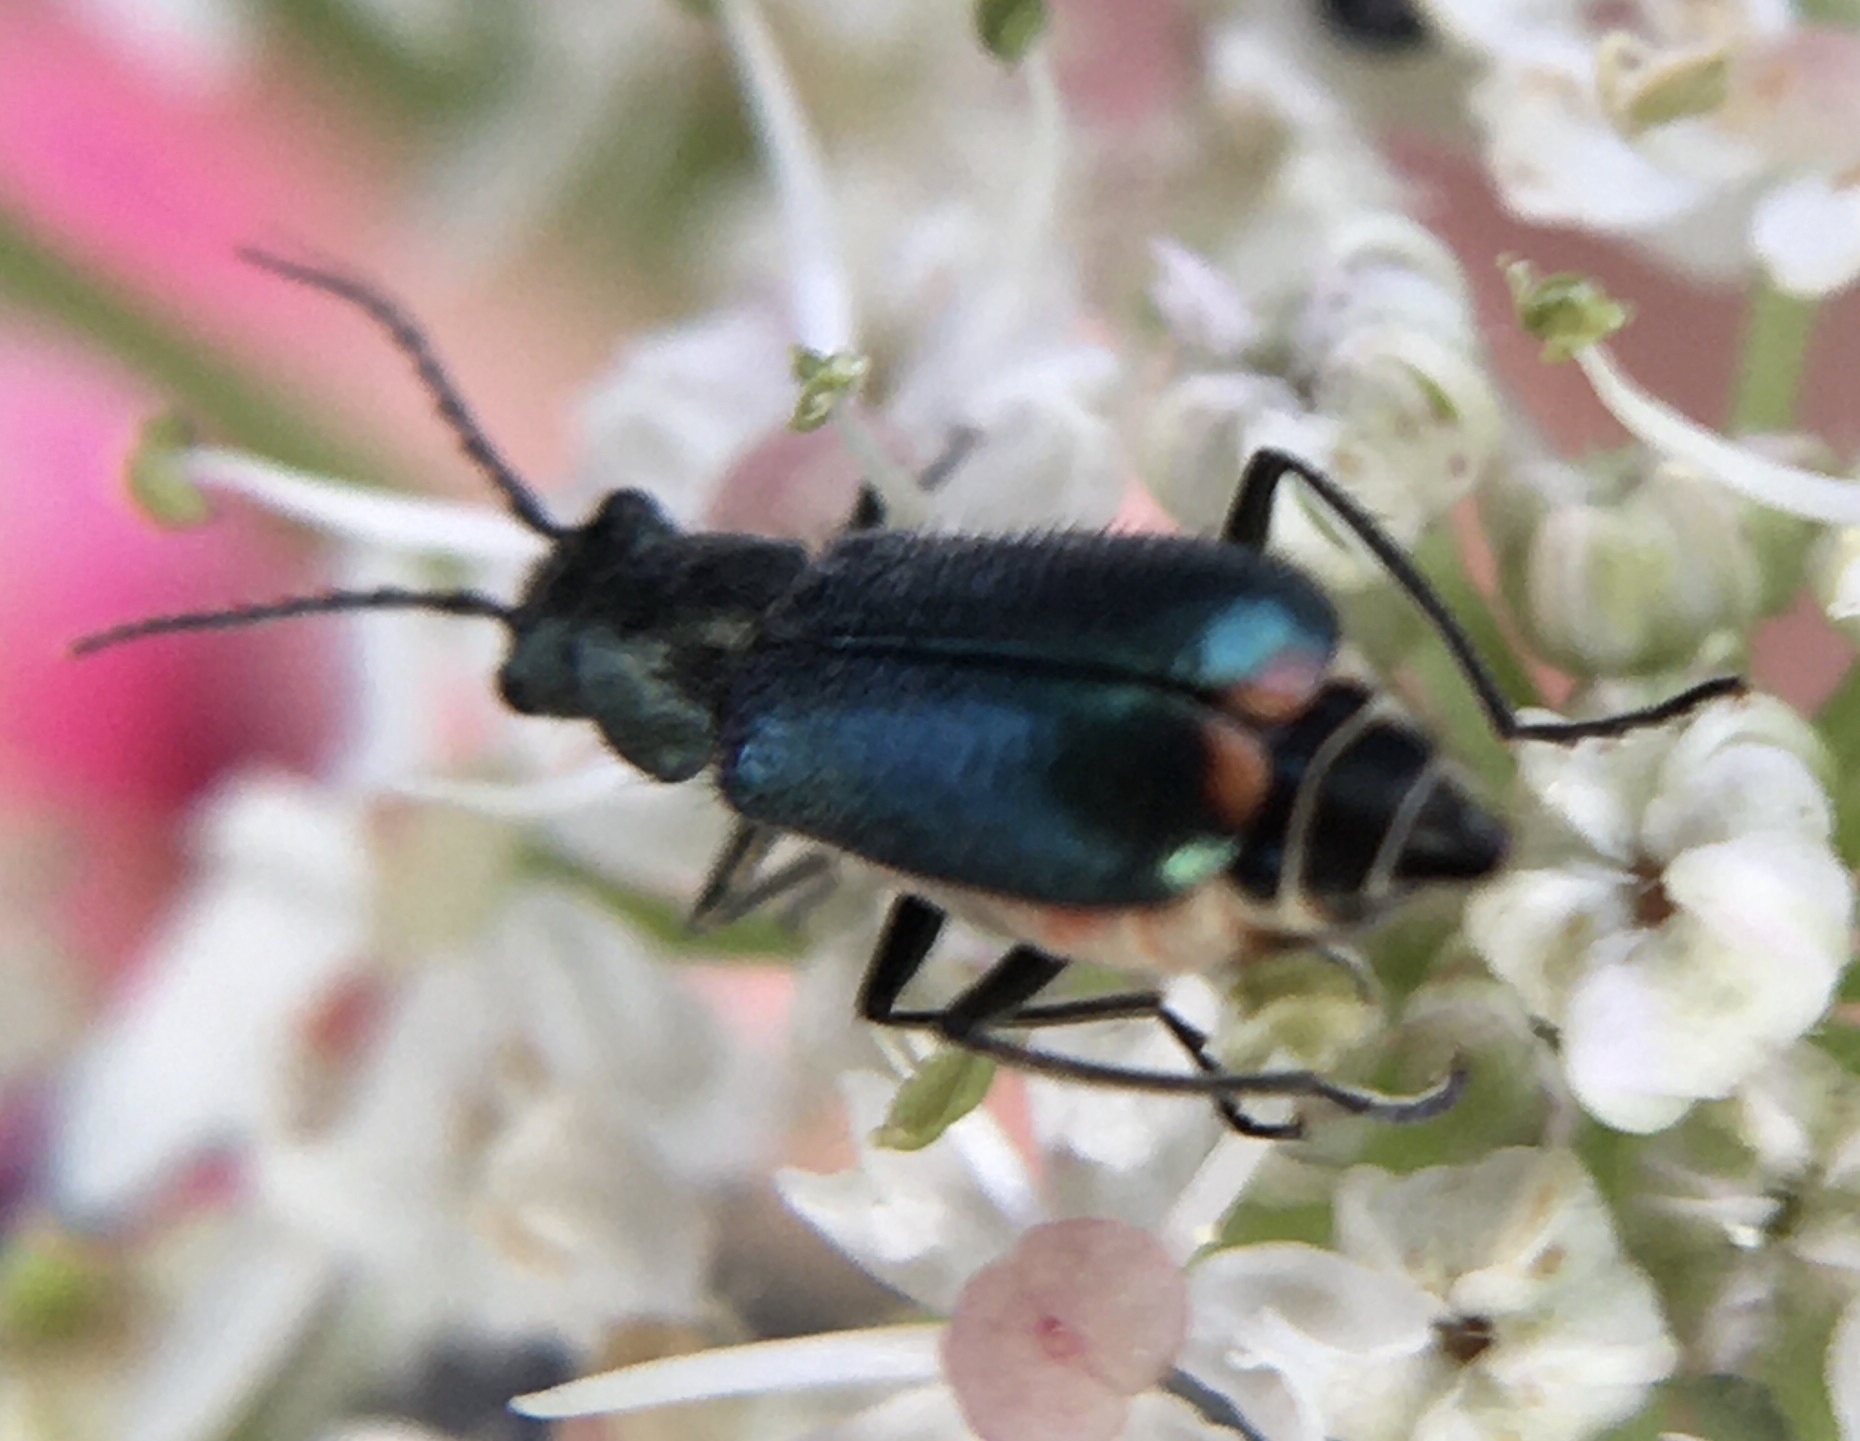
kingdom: Animalia
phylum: Arthropoda
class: Insecta
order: Coleoptera
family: Melyridae
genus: Malachius
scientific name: Malachius bipustulatus
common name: Malachite beetle
